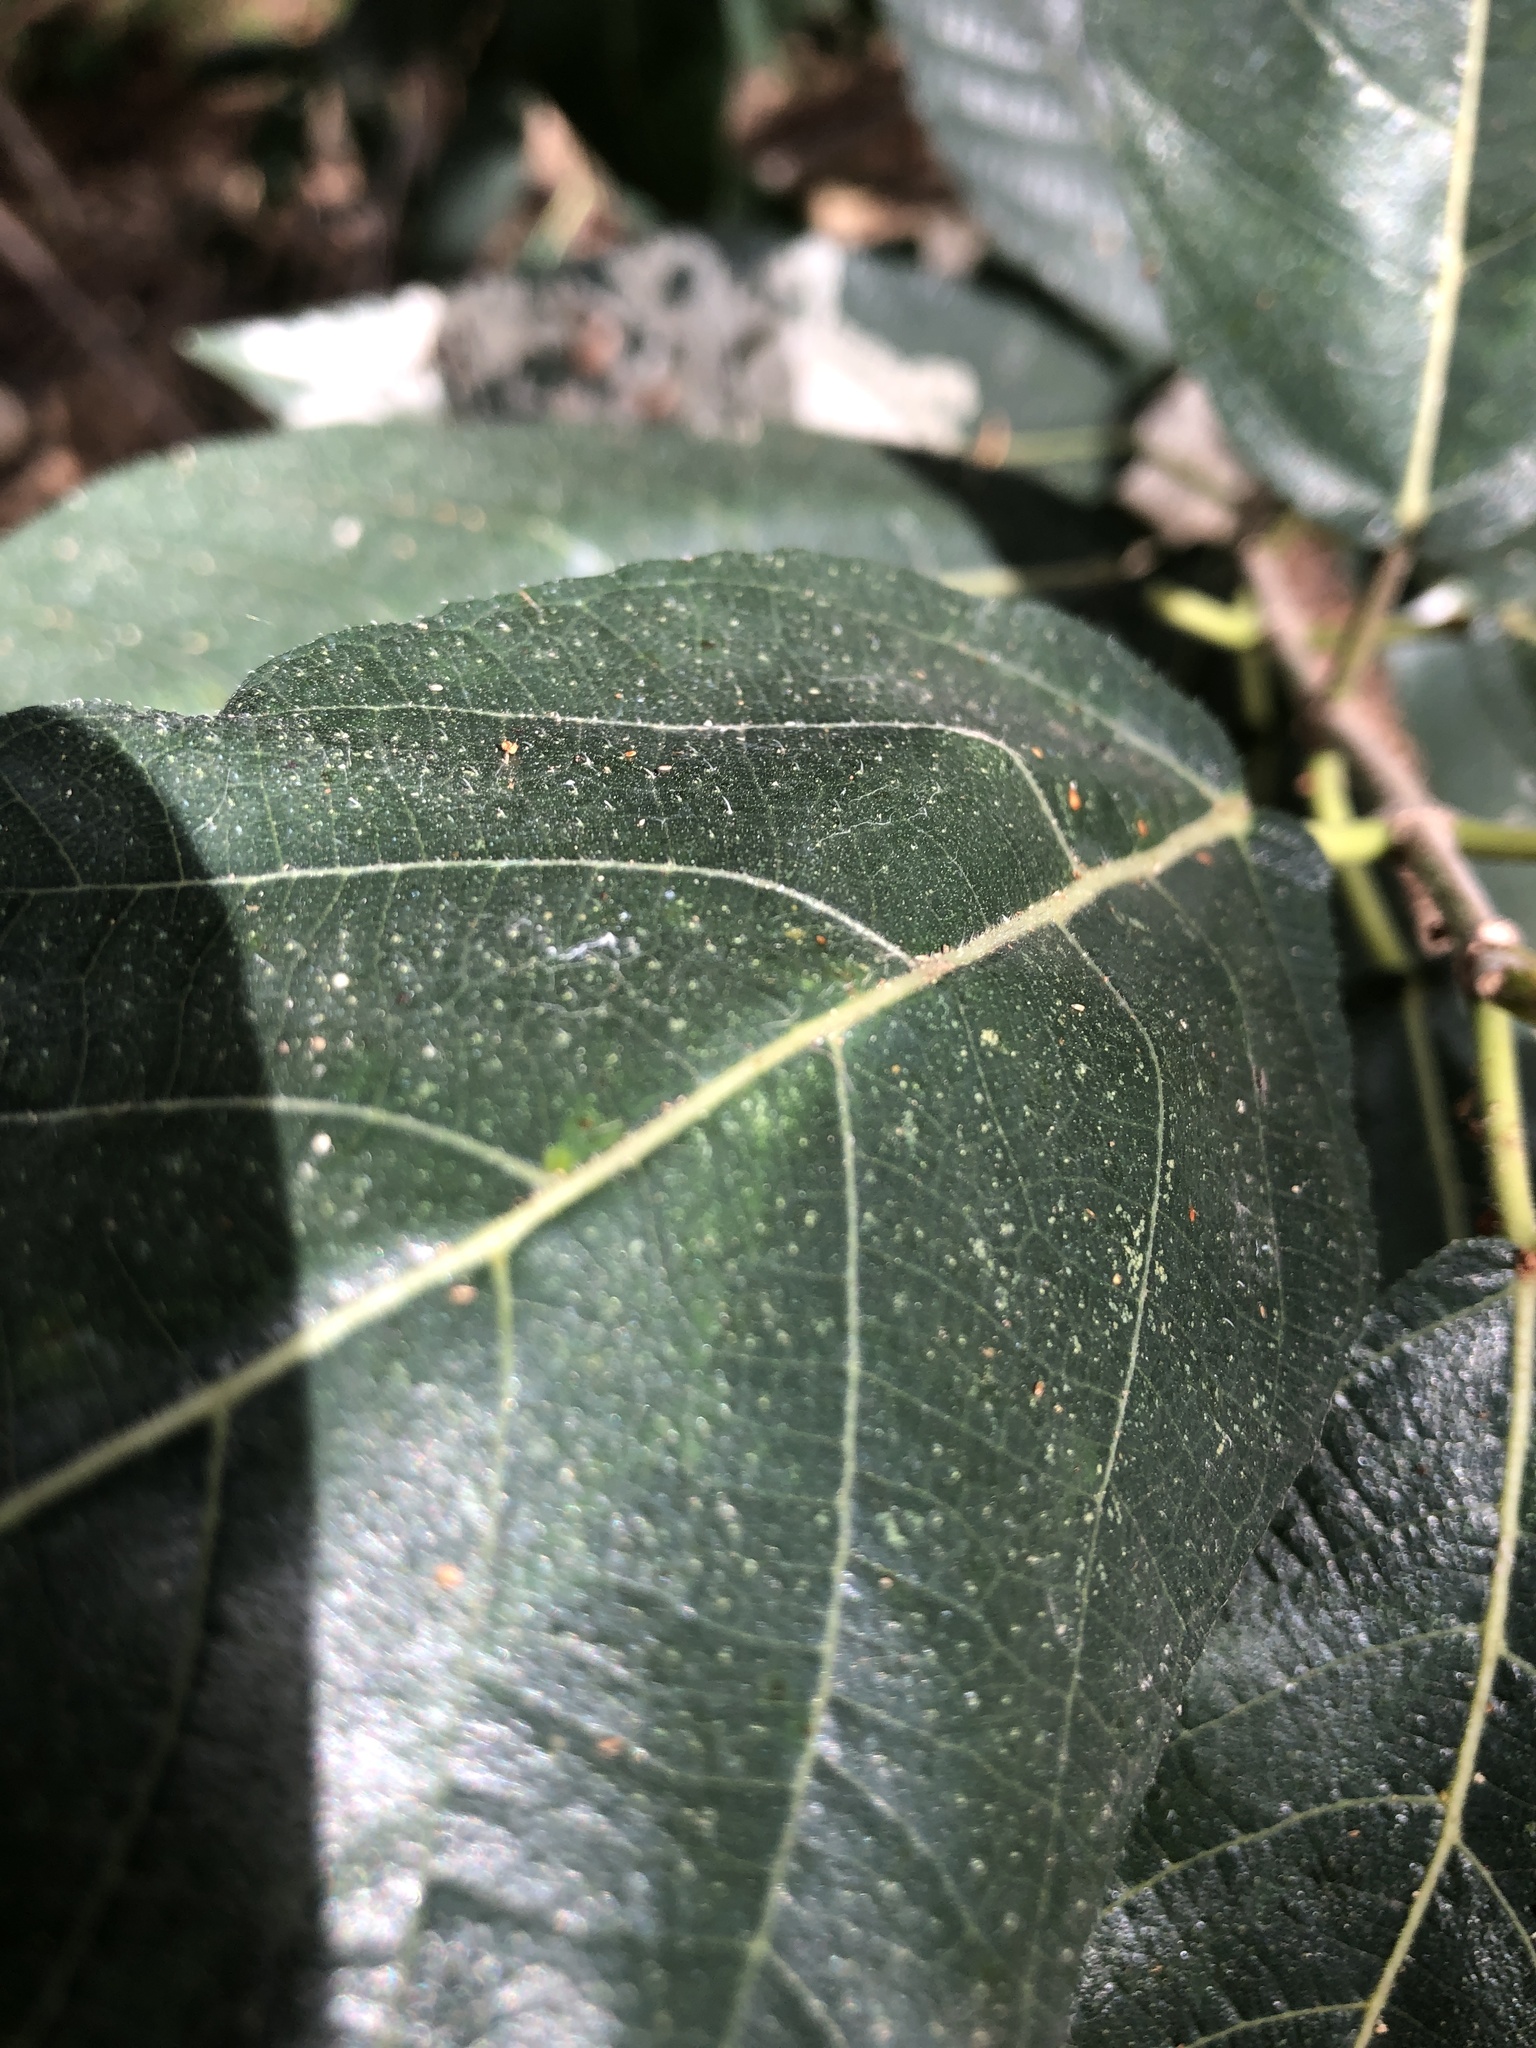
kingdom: Plantae
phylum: Tracheophyta
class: Magnoliopsida
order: Rosales
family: Moraceae
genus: Ficus
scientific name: Ficus opposita
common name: Figwood
